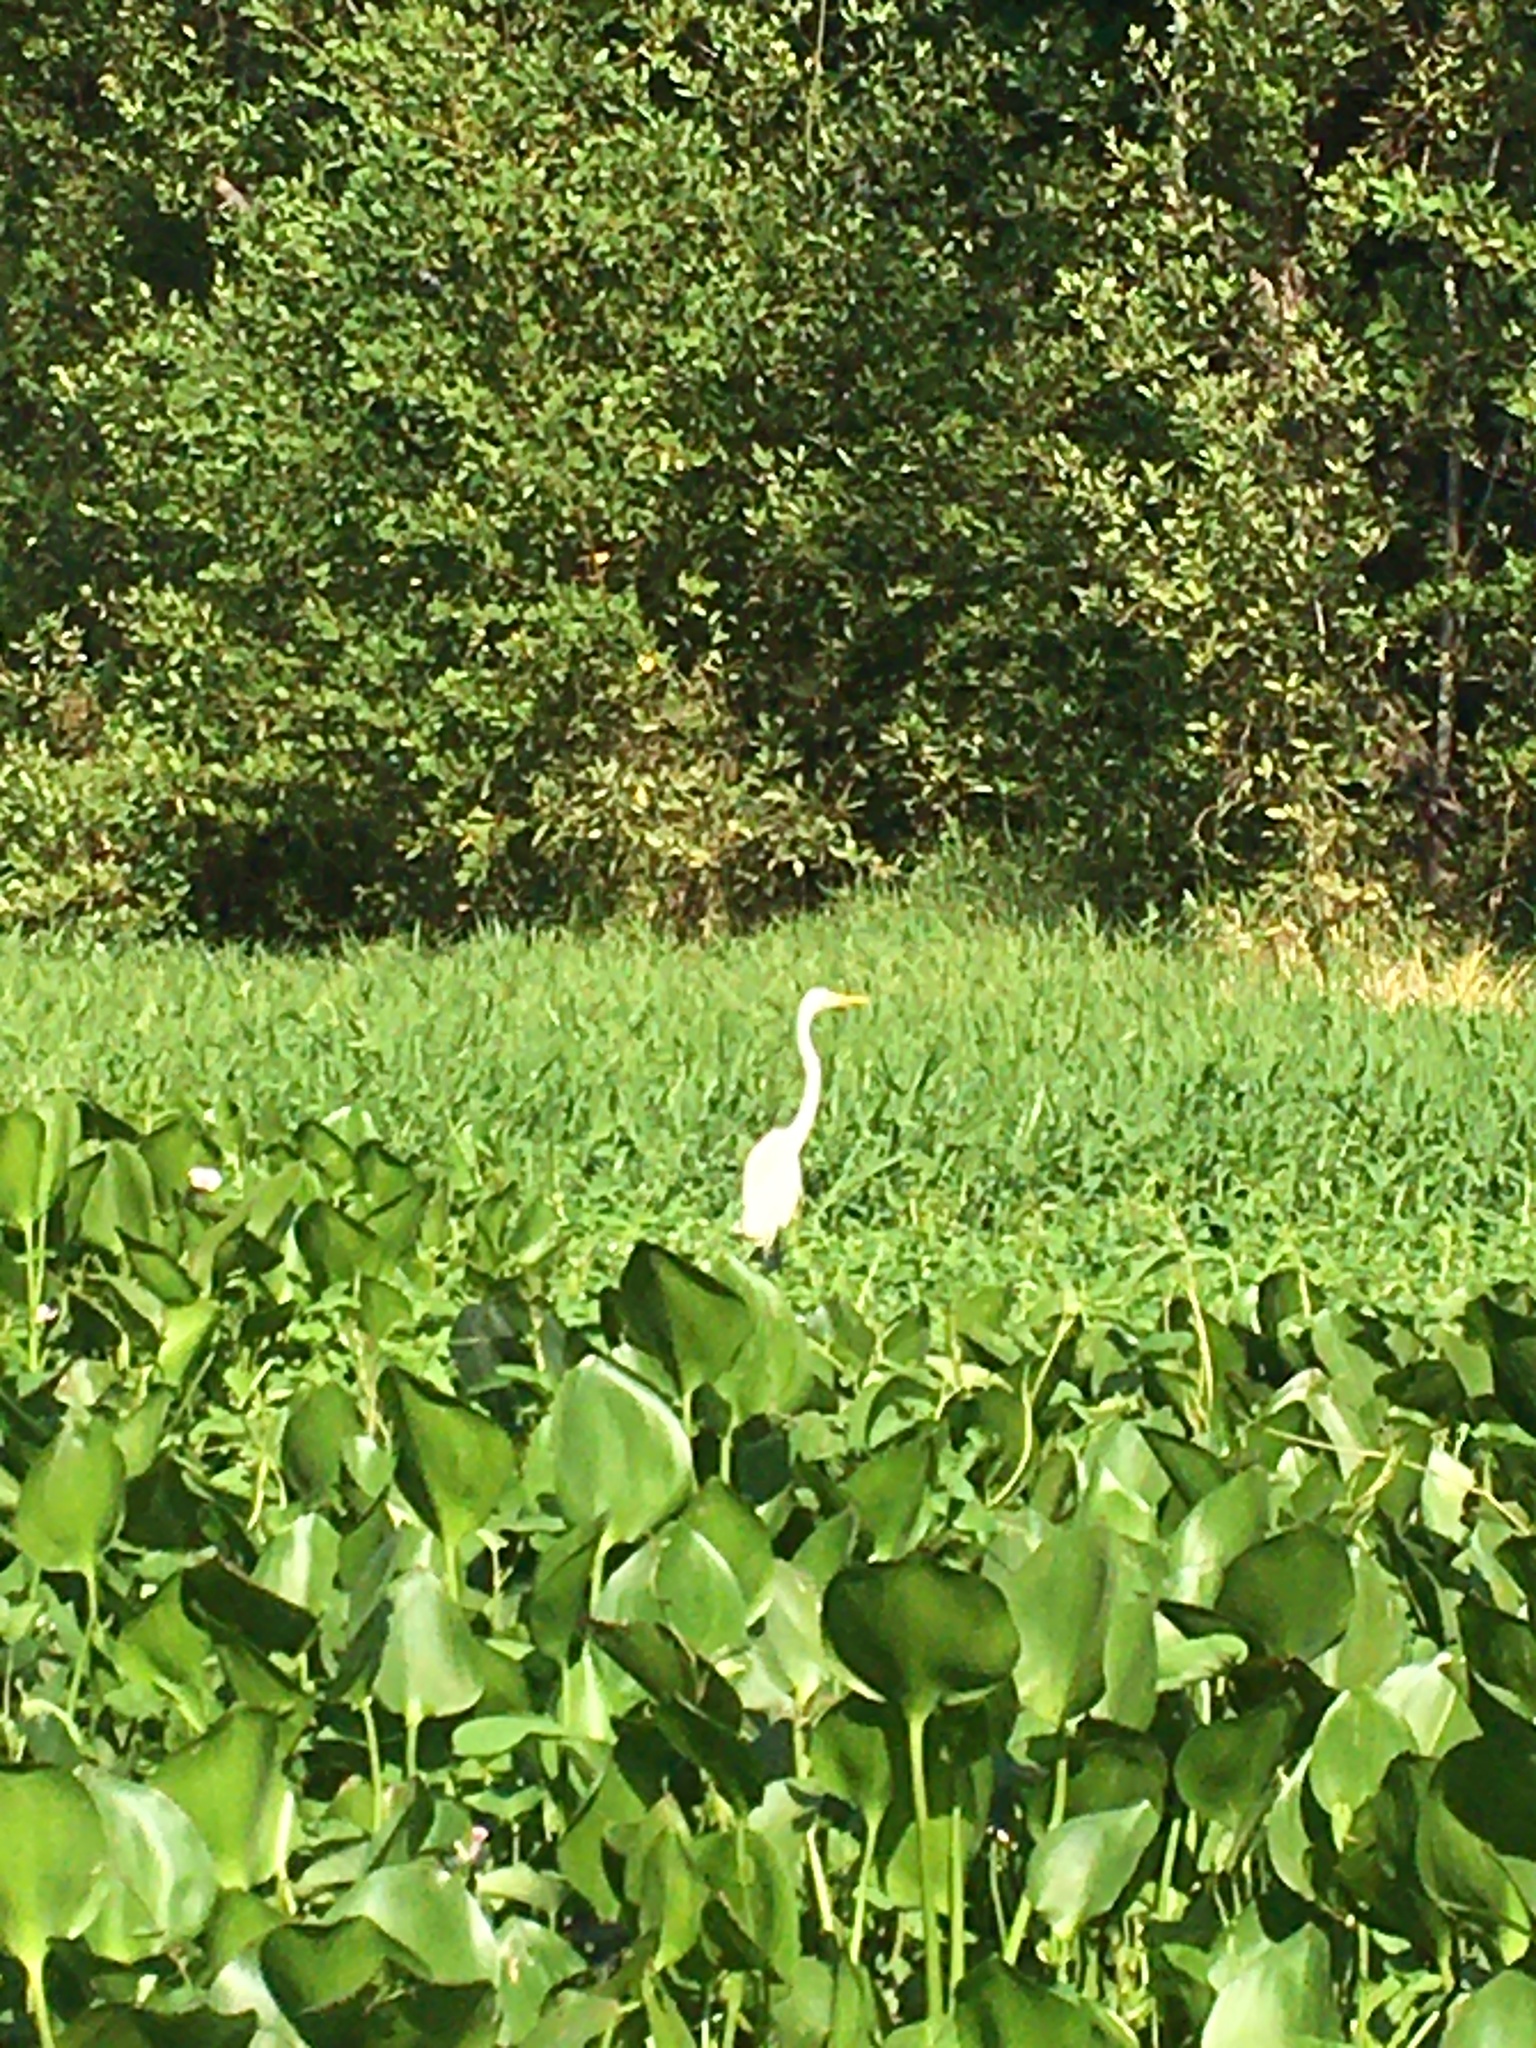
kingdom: Animalia
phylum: Chordata
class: Aves
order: Pelecaniformes
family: Ardeidae
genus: Ardea
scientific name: Ardea alba
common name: Great egret
